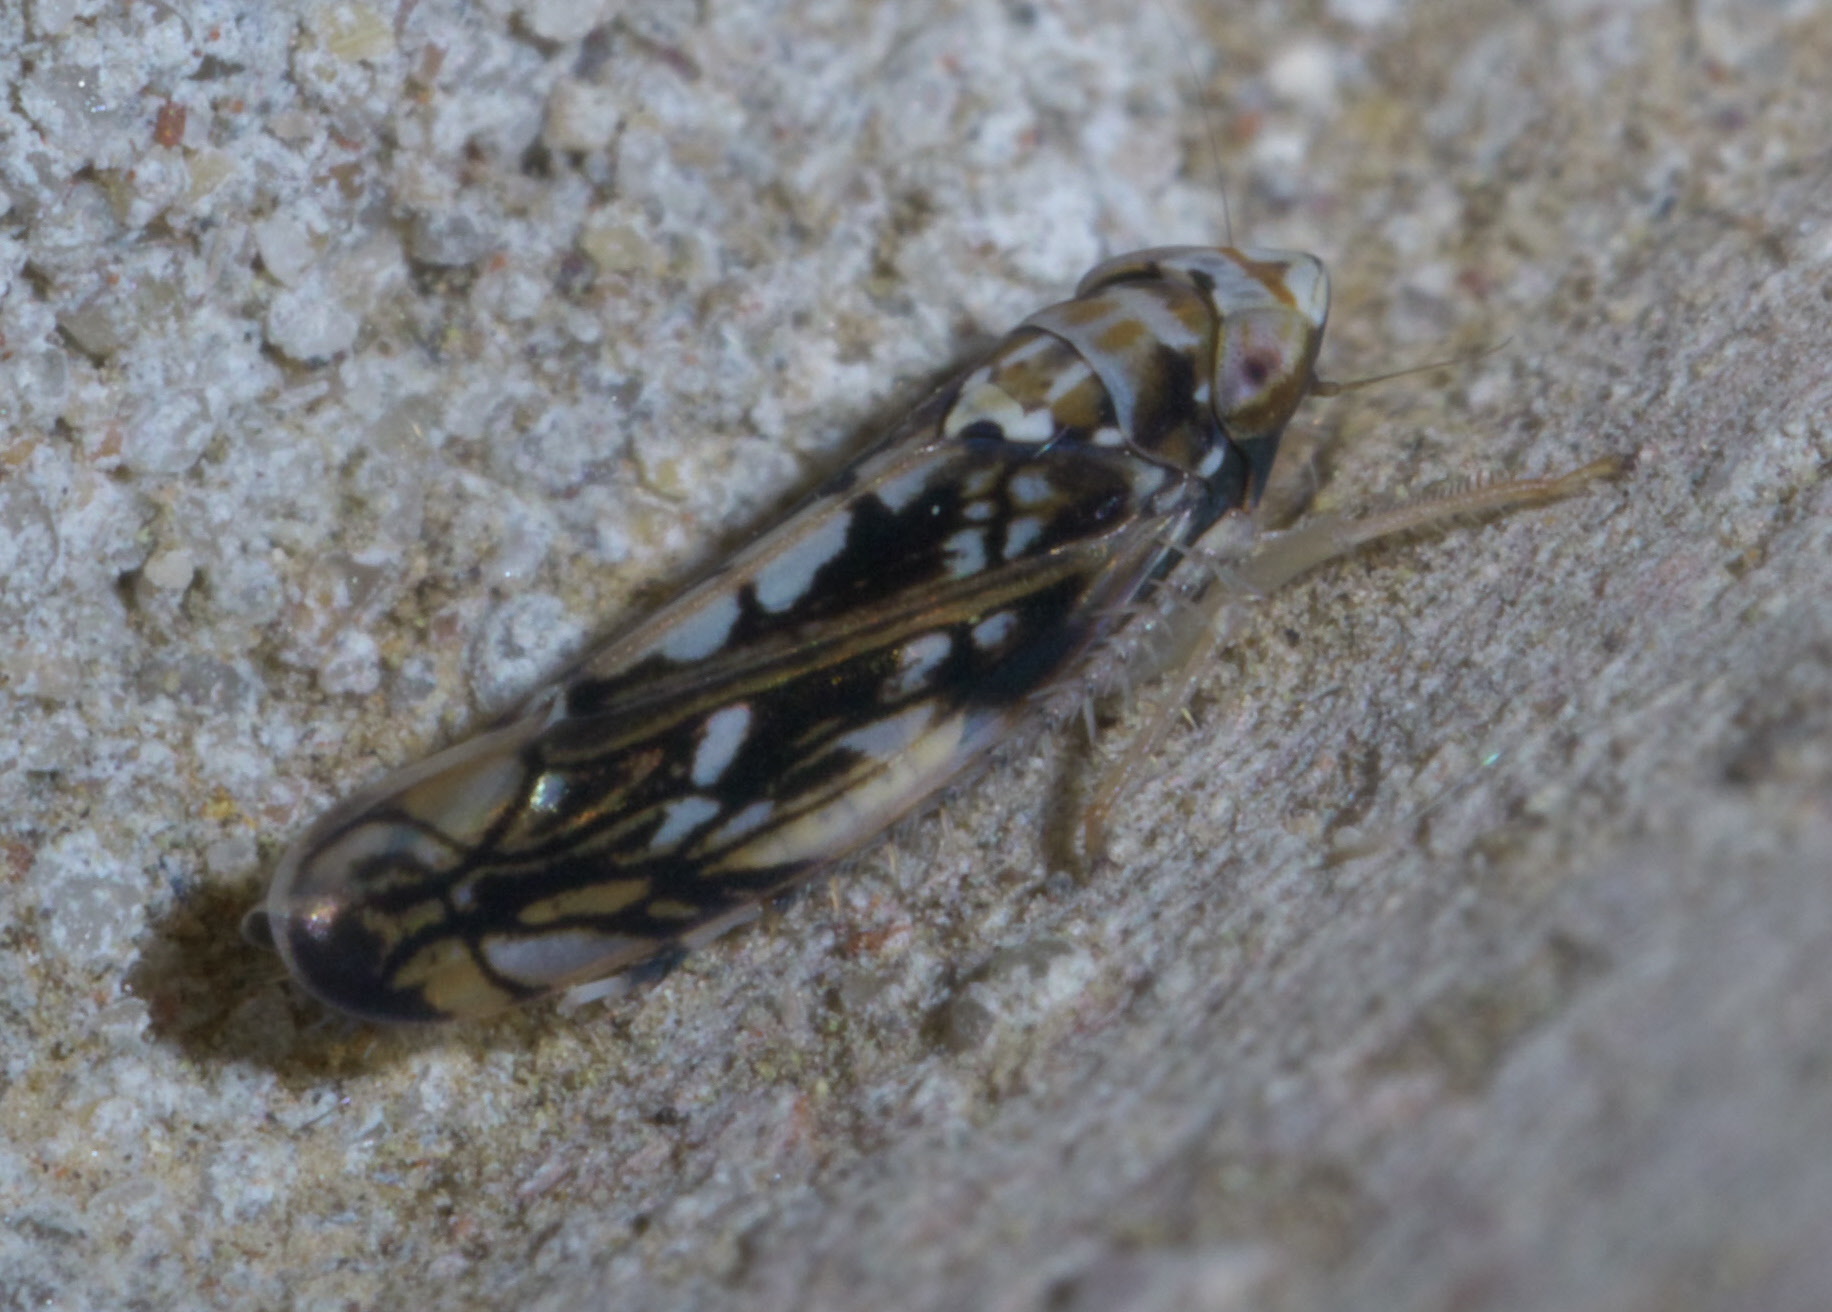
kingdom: Animalia
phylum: Arthropoda
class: Insecta
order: Hemiptera
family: Cicadellidae
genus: Scaphoideus
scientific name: Scaphoideus melanotus
